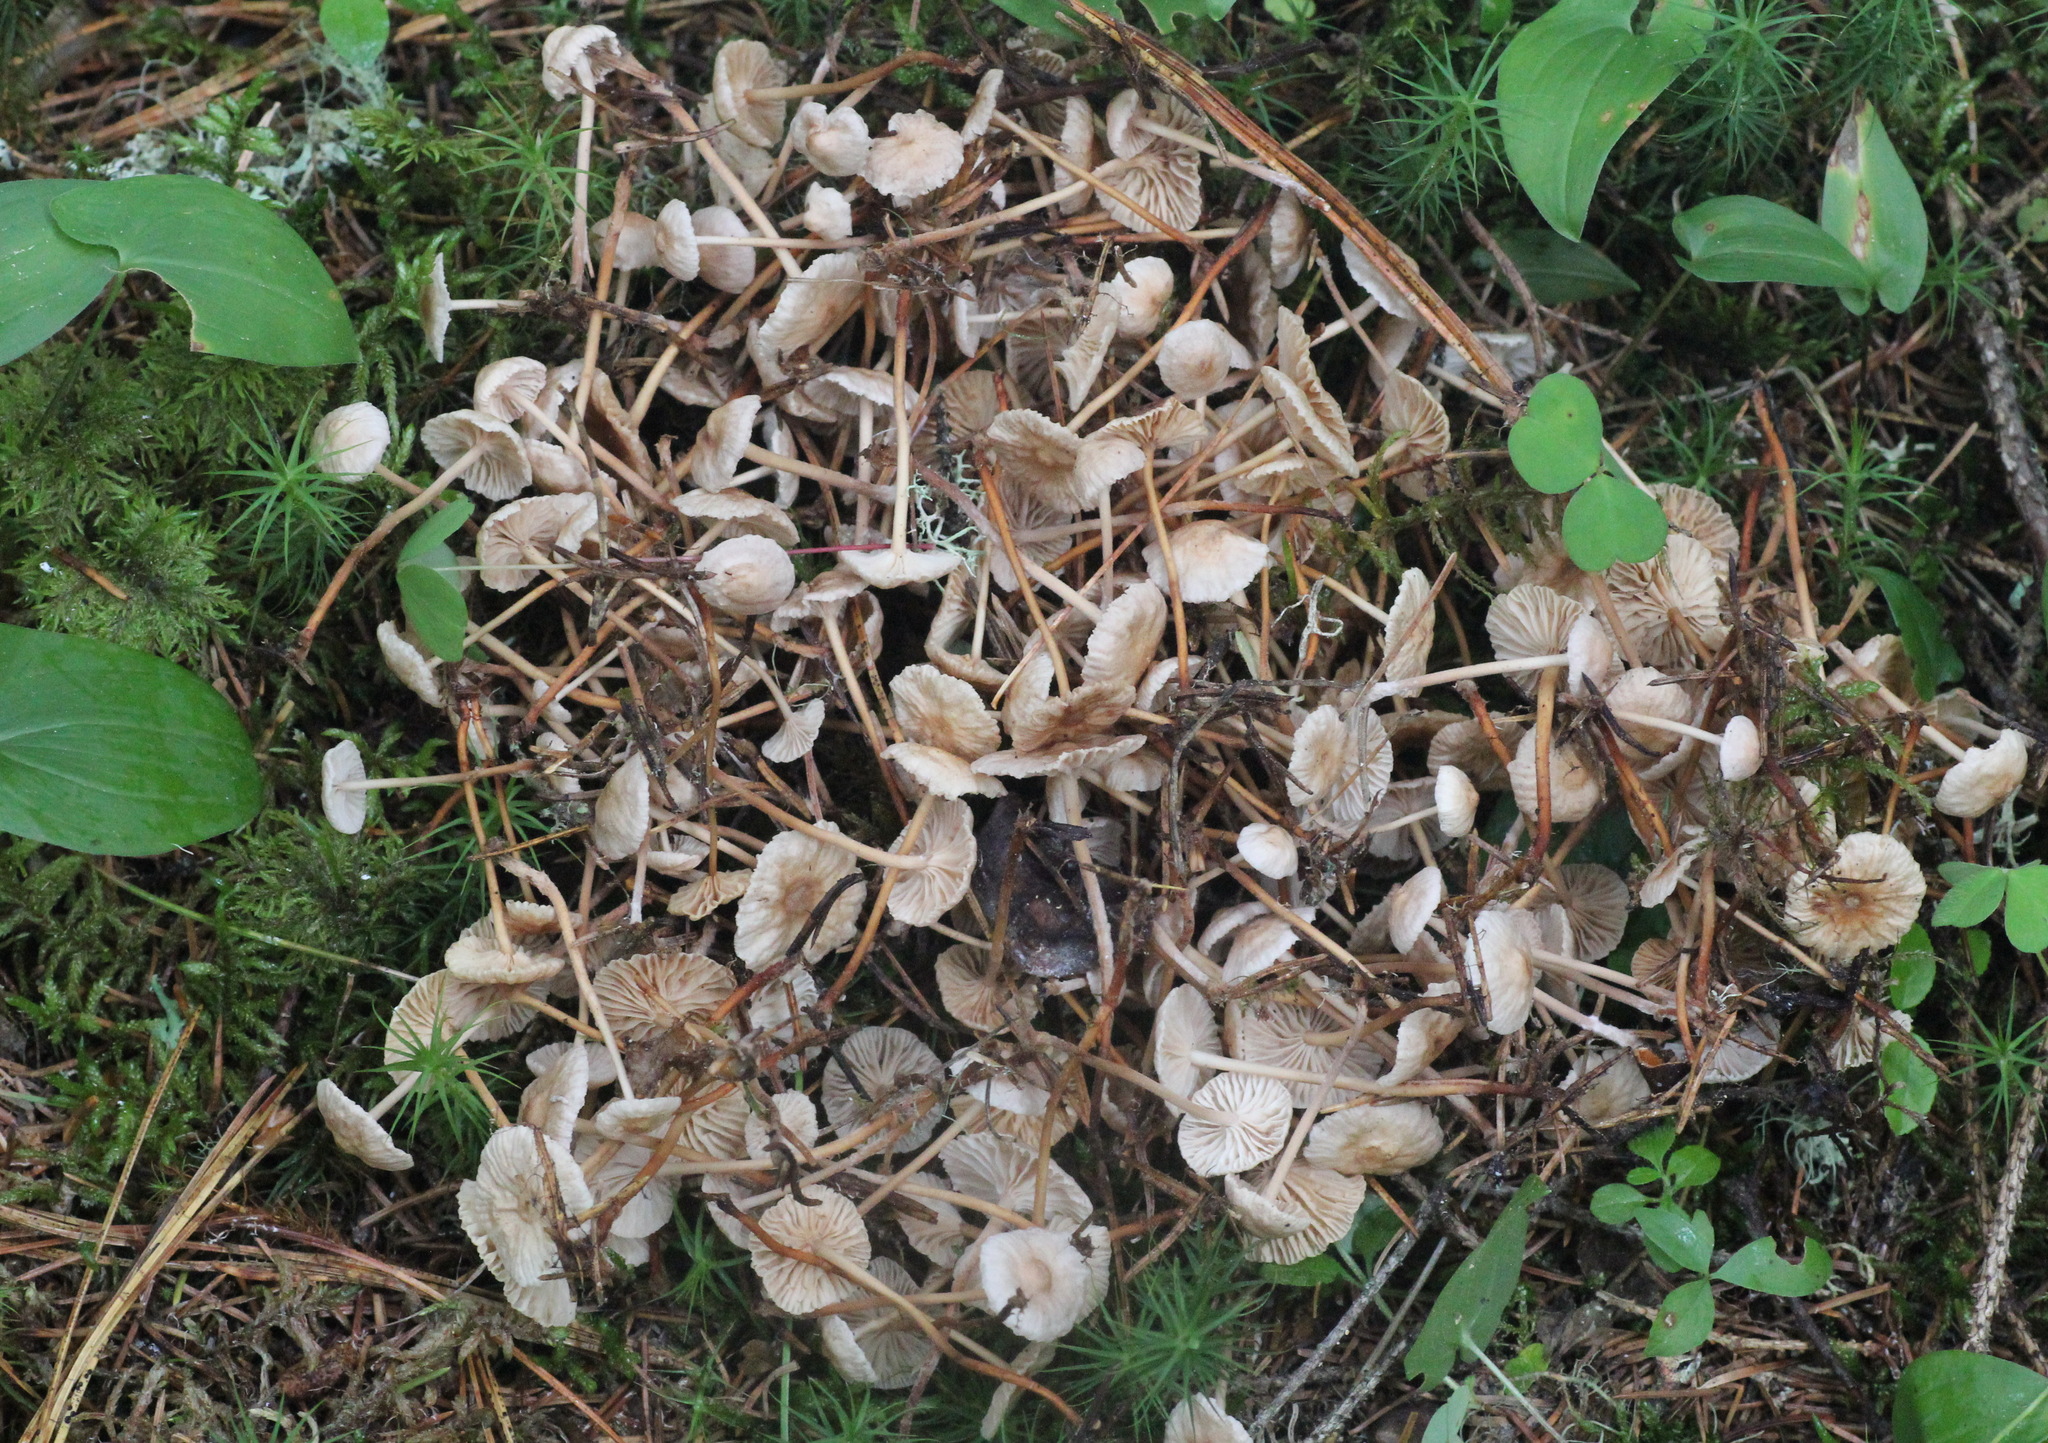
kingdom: Fungi
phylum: Basidiomycota
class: Agaricomycetes
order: Agaricales
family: Omphalotaceae
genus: Paragymnopus
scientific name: Paragymnopus perforans
